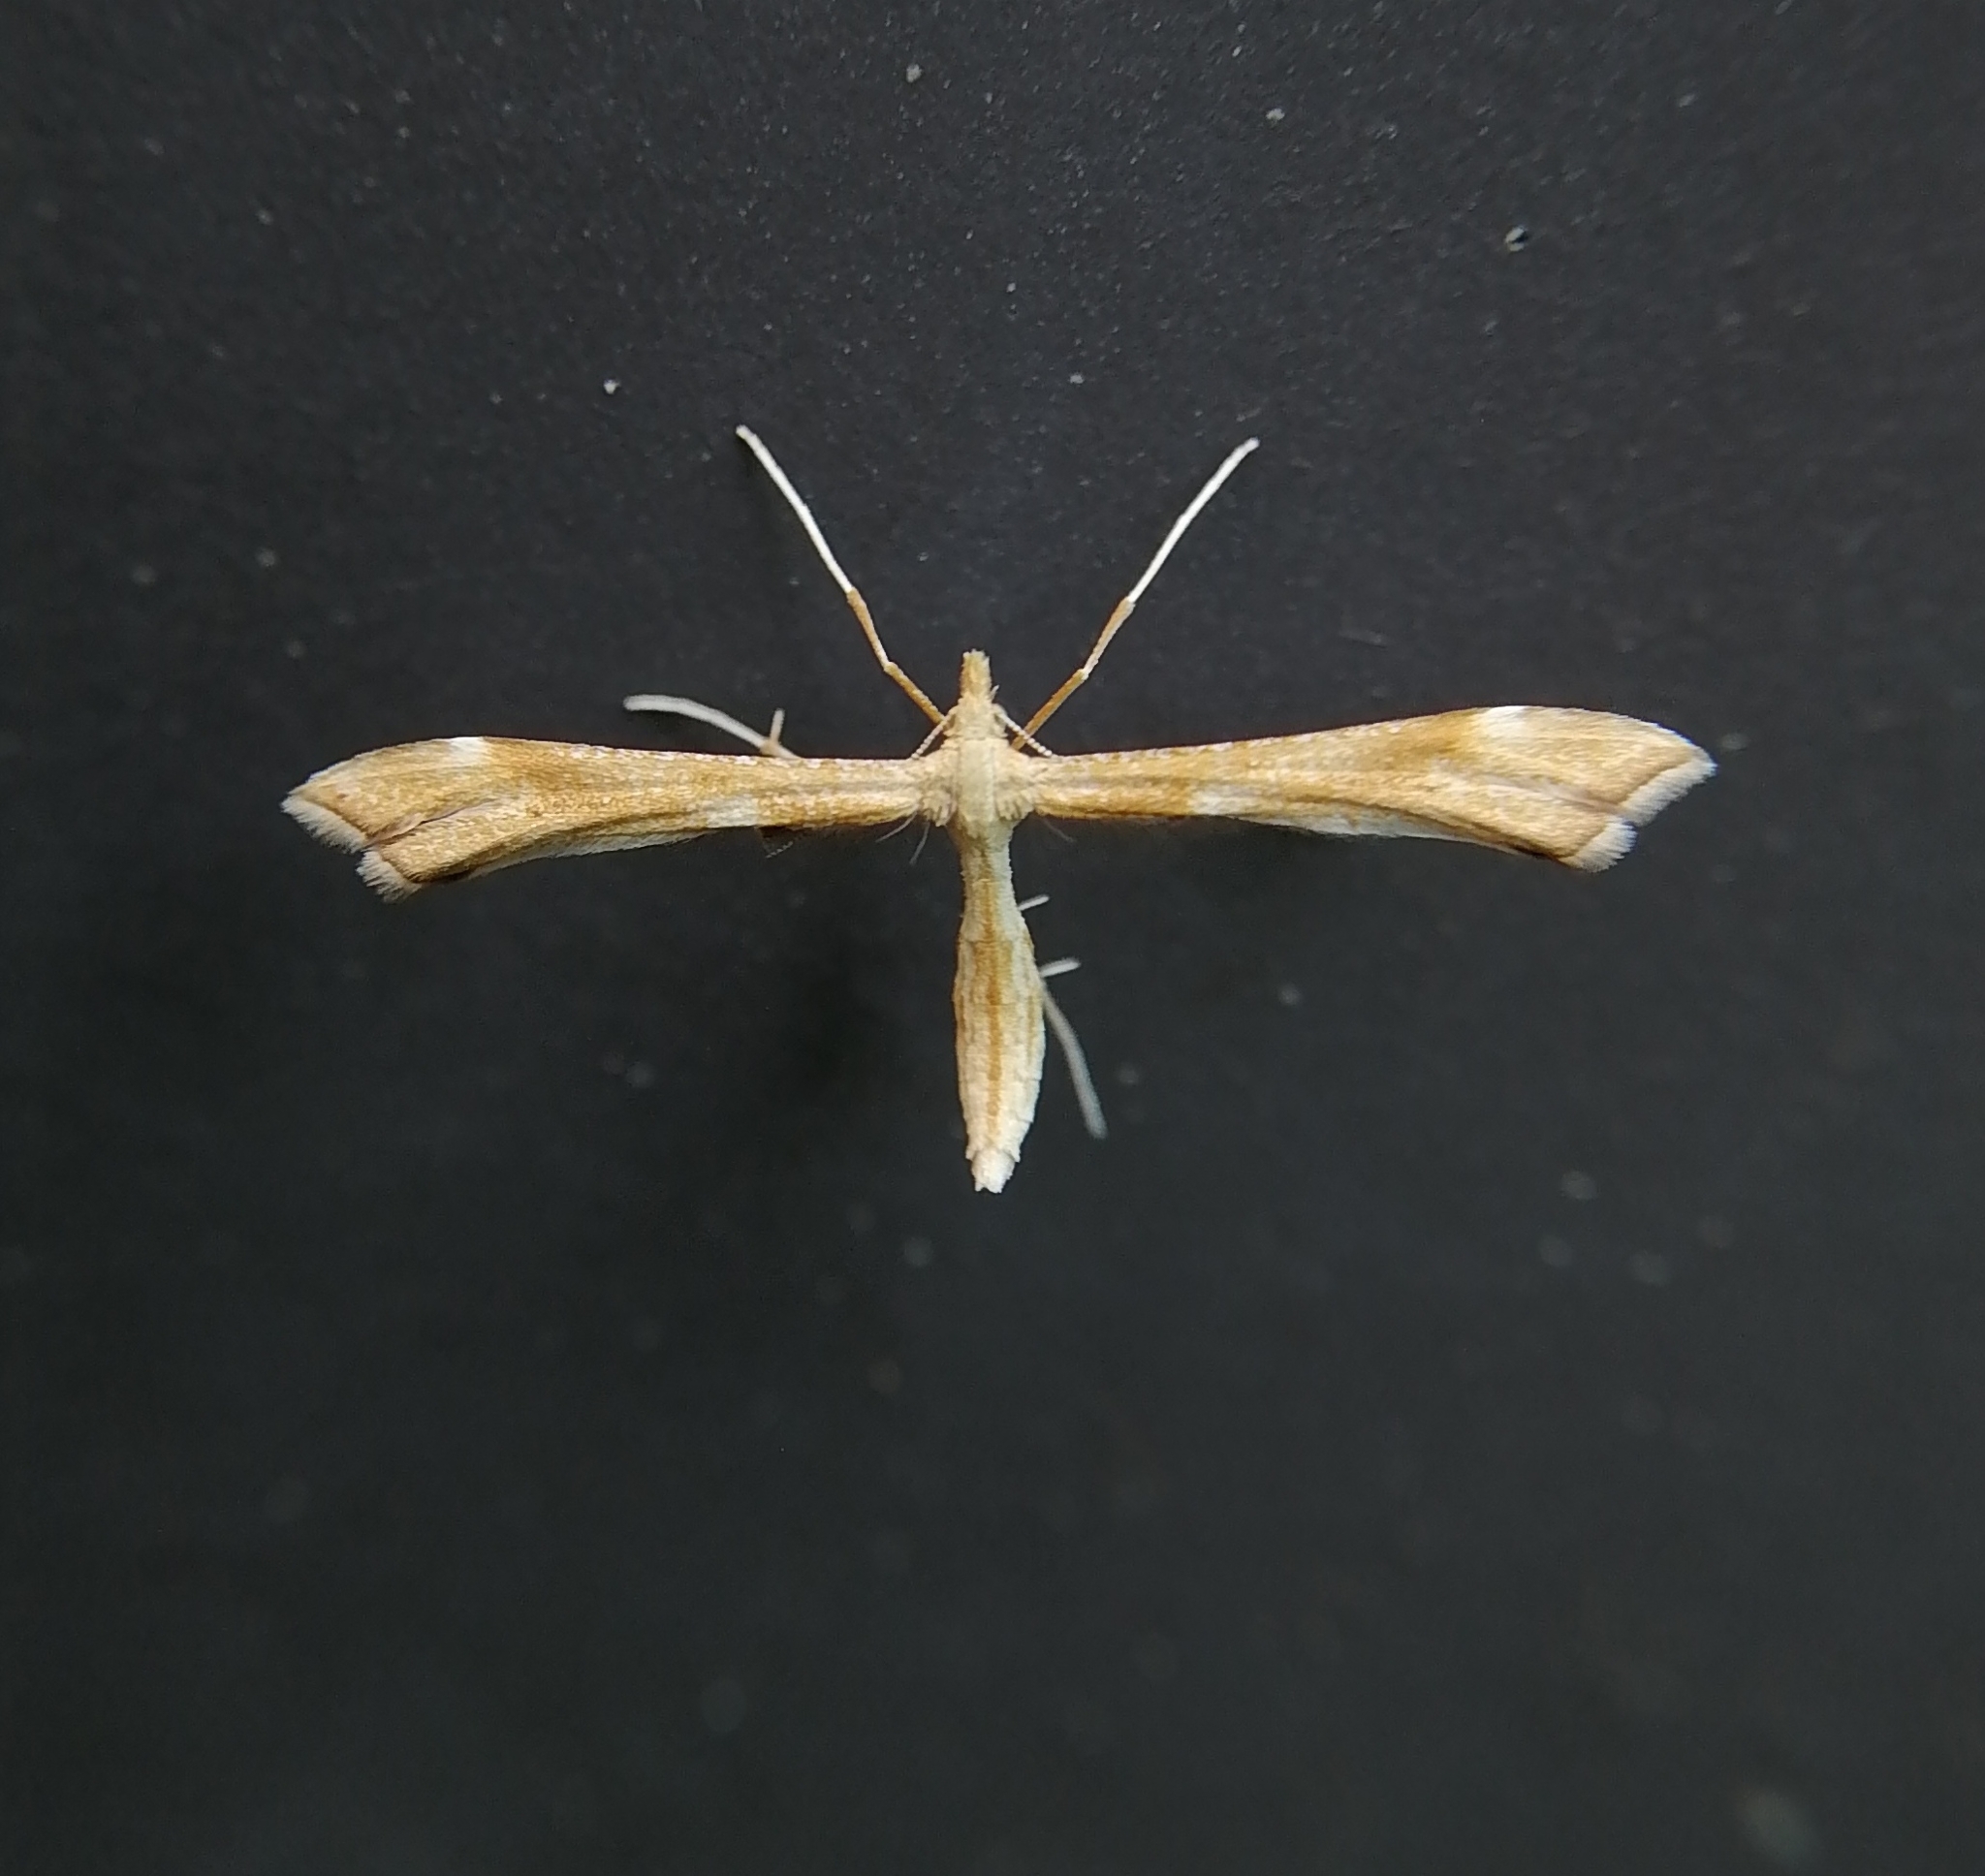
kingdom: Animalia
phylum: Arthropoda
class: Insecta
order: Lepidoptera
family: Pterophoridae
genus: Gillmeria
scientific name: Gillmeria pallidactyla
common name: Yarrow plume
